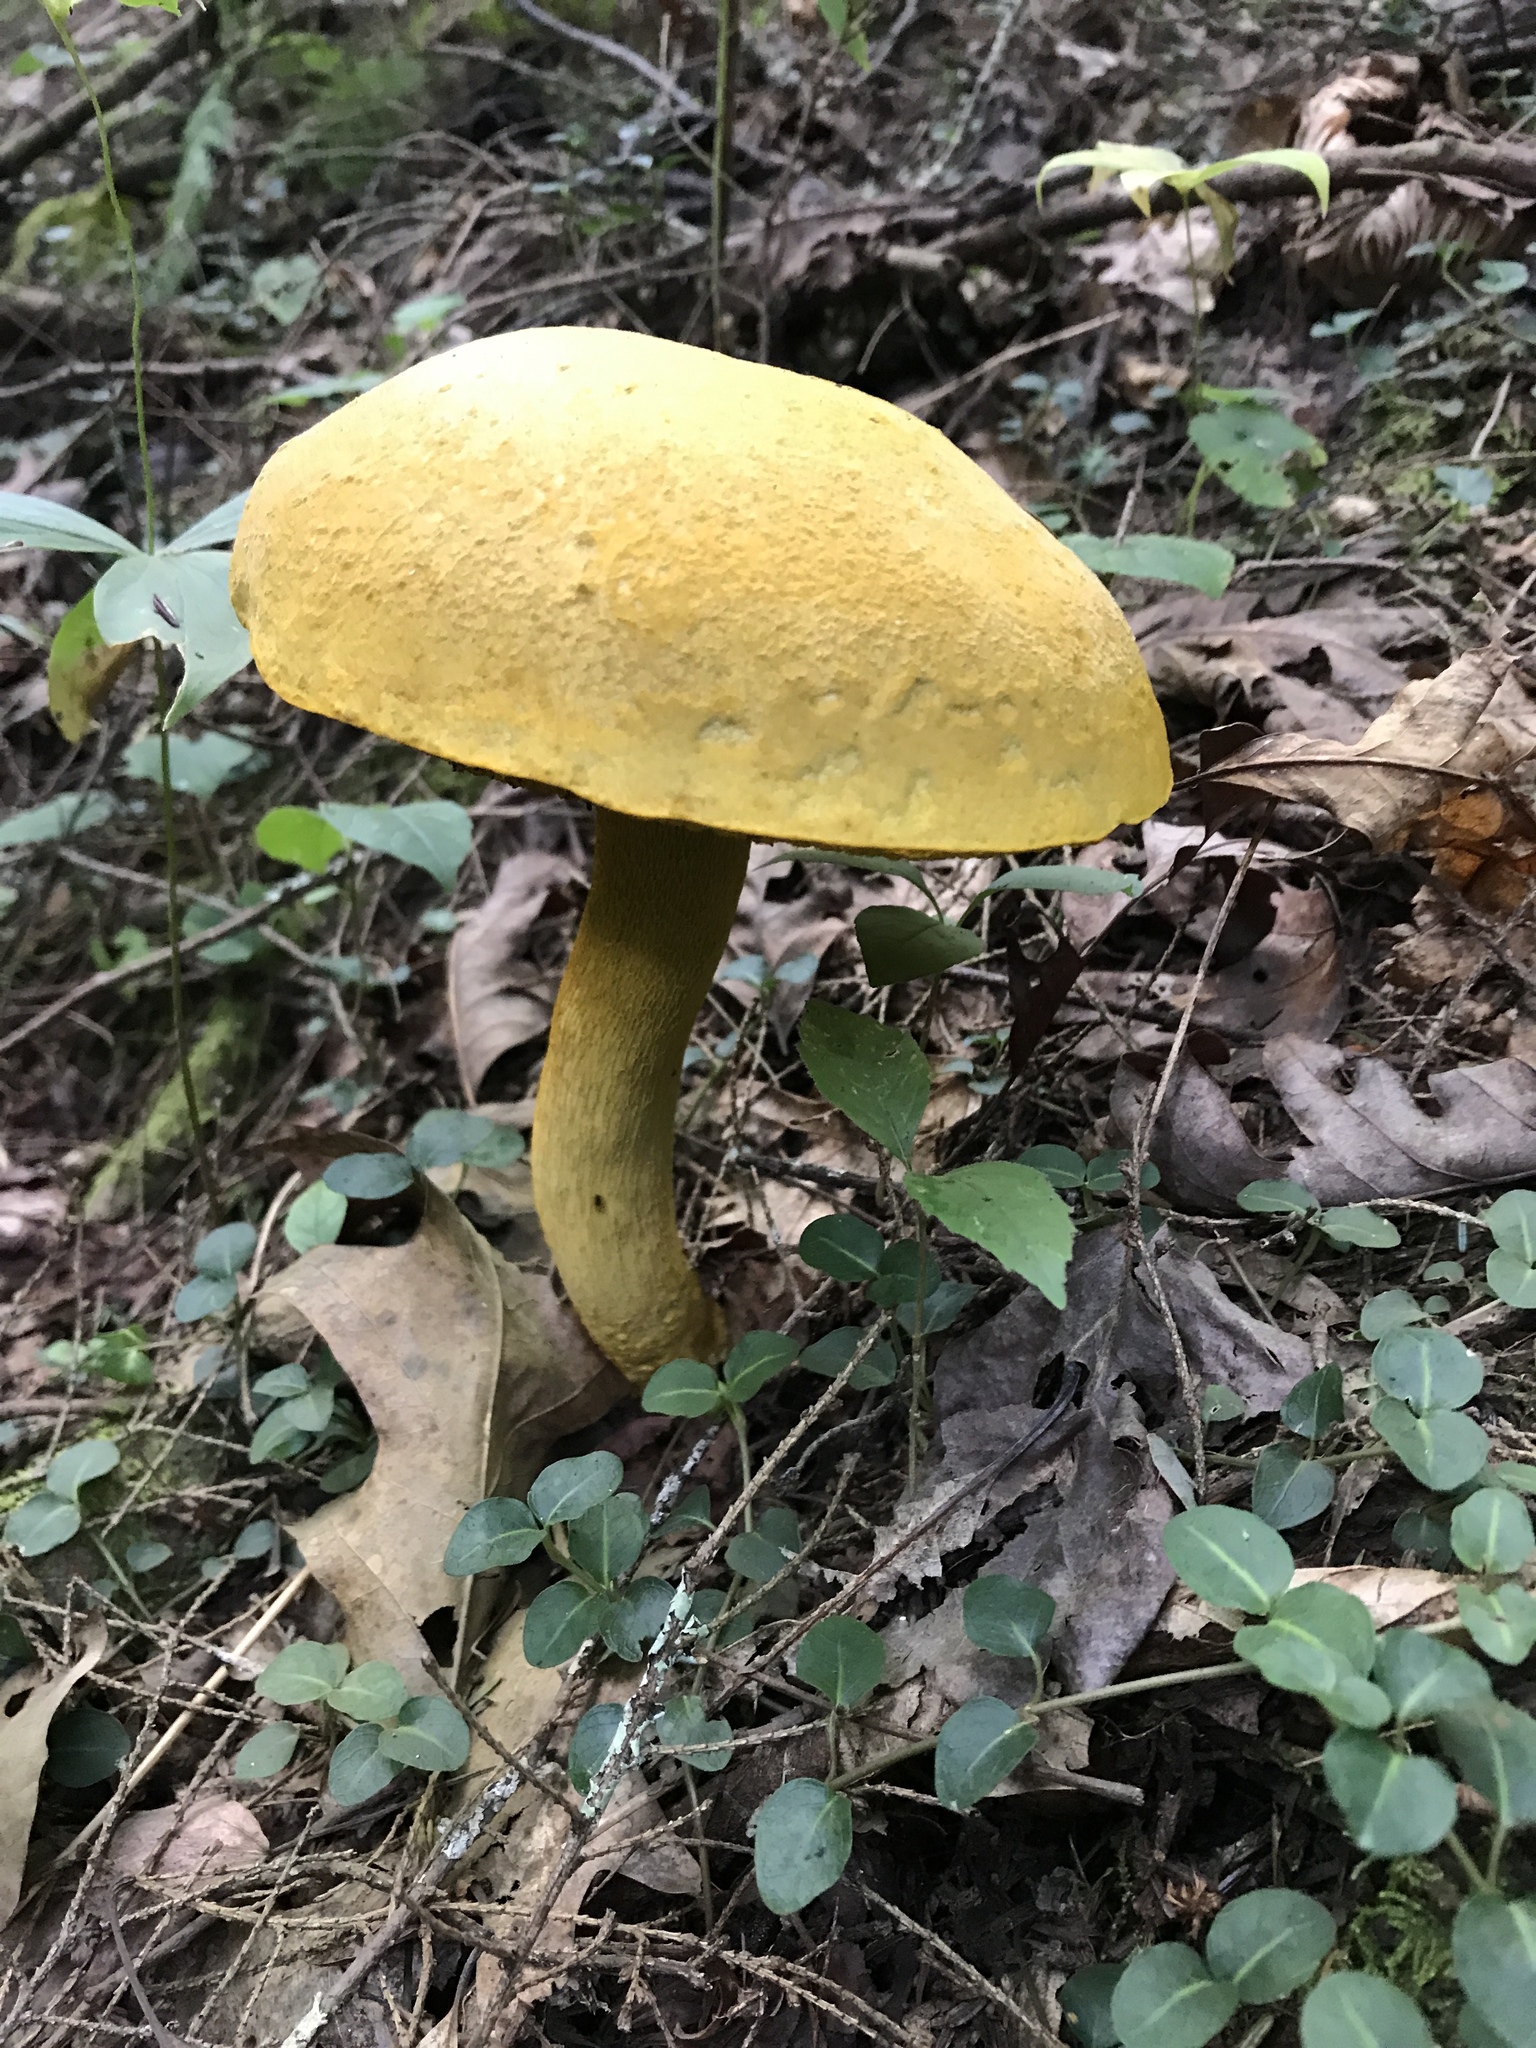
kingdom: Fungi
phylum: Basidiomycota
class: Agaricomycetes
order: Boletales
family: Boletaceae
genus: Retiboletus
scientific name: Retiboletus ornatipes
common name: Ornate-stalked bolete
